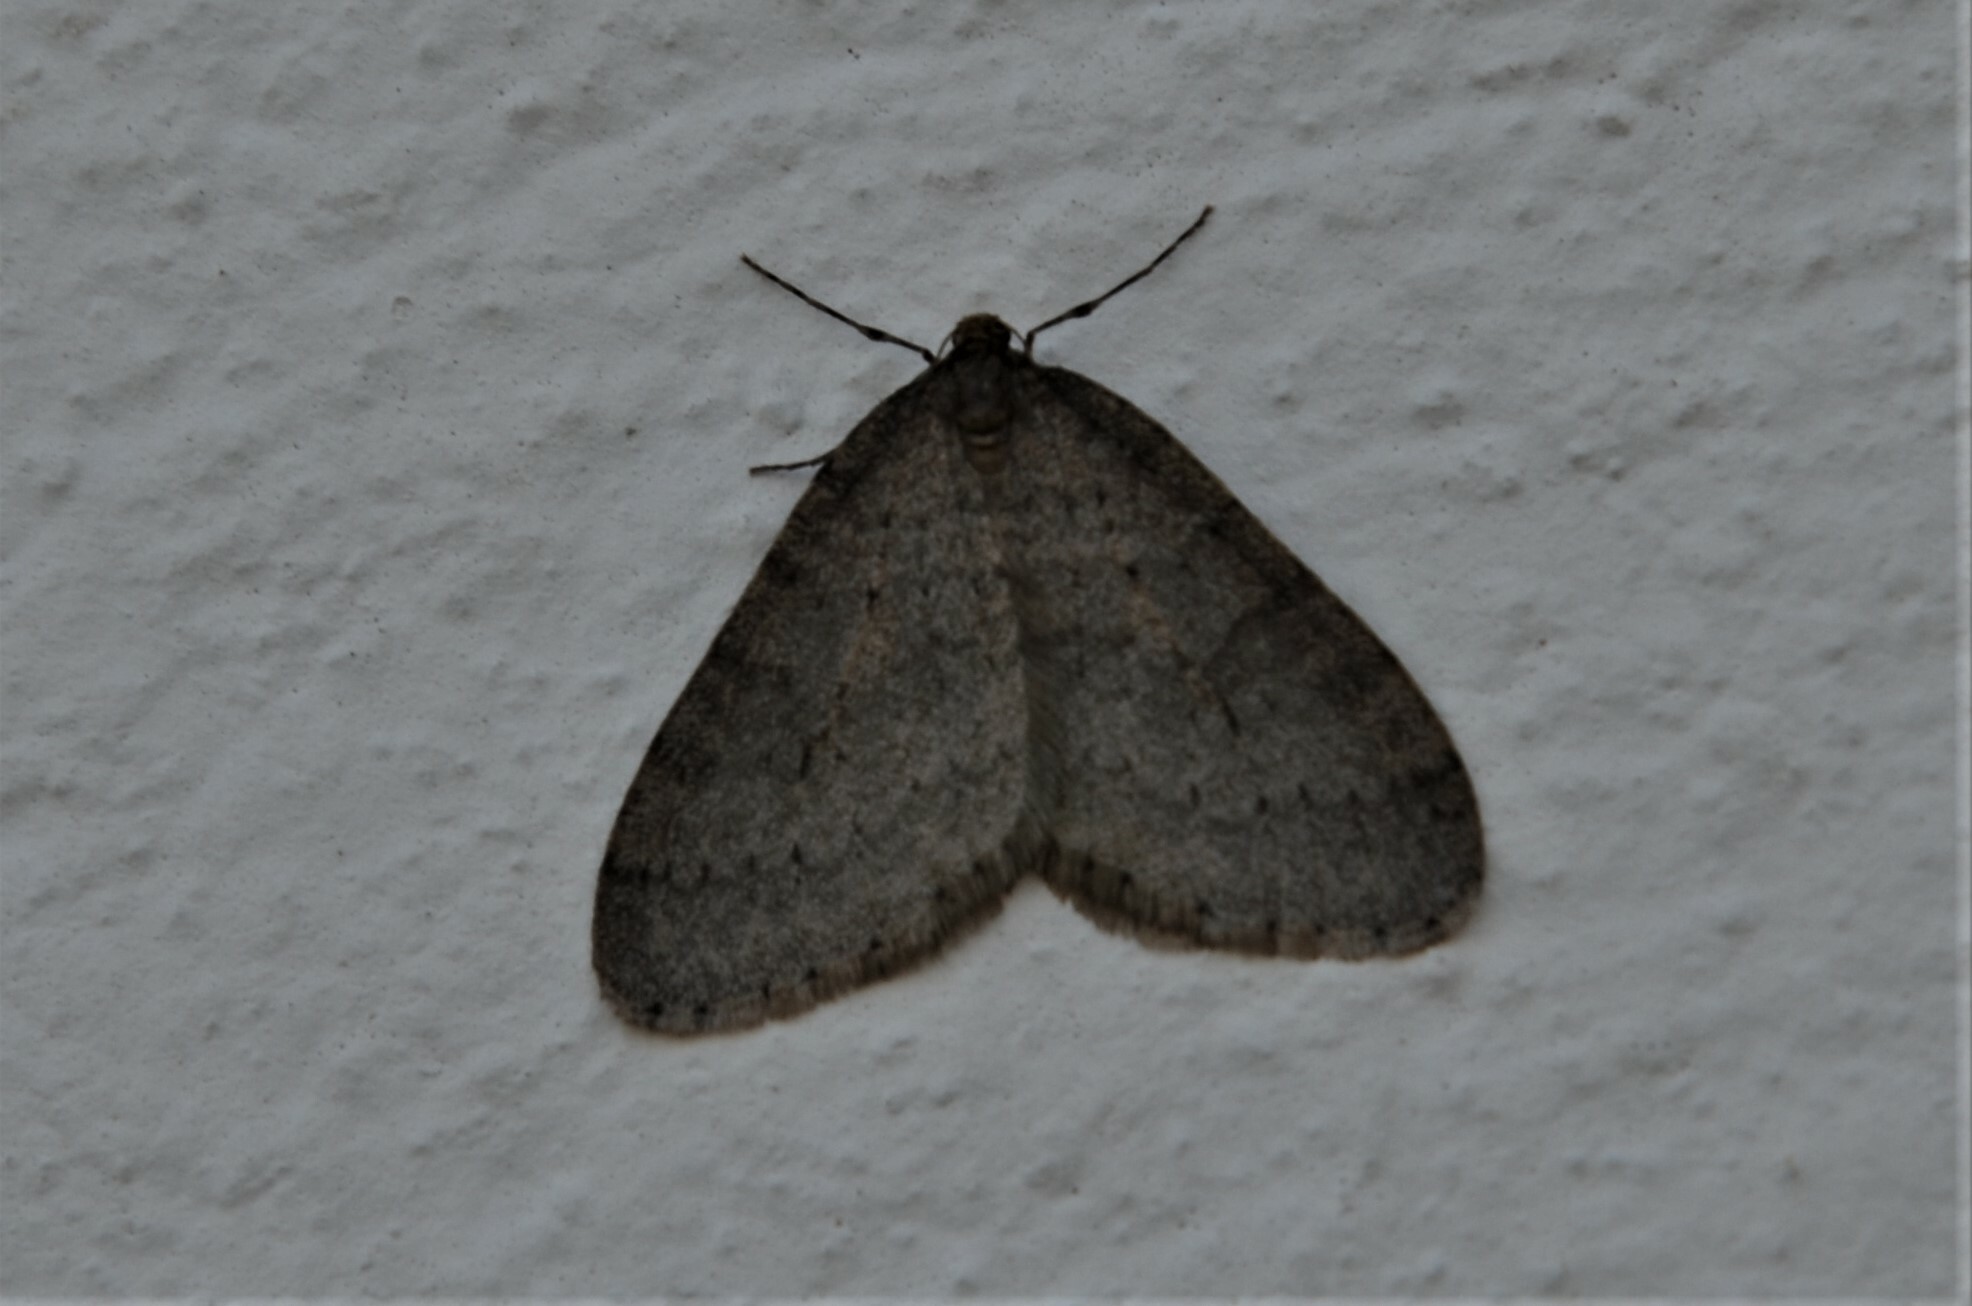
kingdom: Animalia
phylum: Arthropoda
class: Insecta
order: Lepidoptera
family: Geometridae
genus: Operophtera
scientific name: Operophtera brumata
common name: Winter moth
